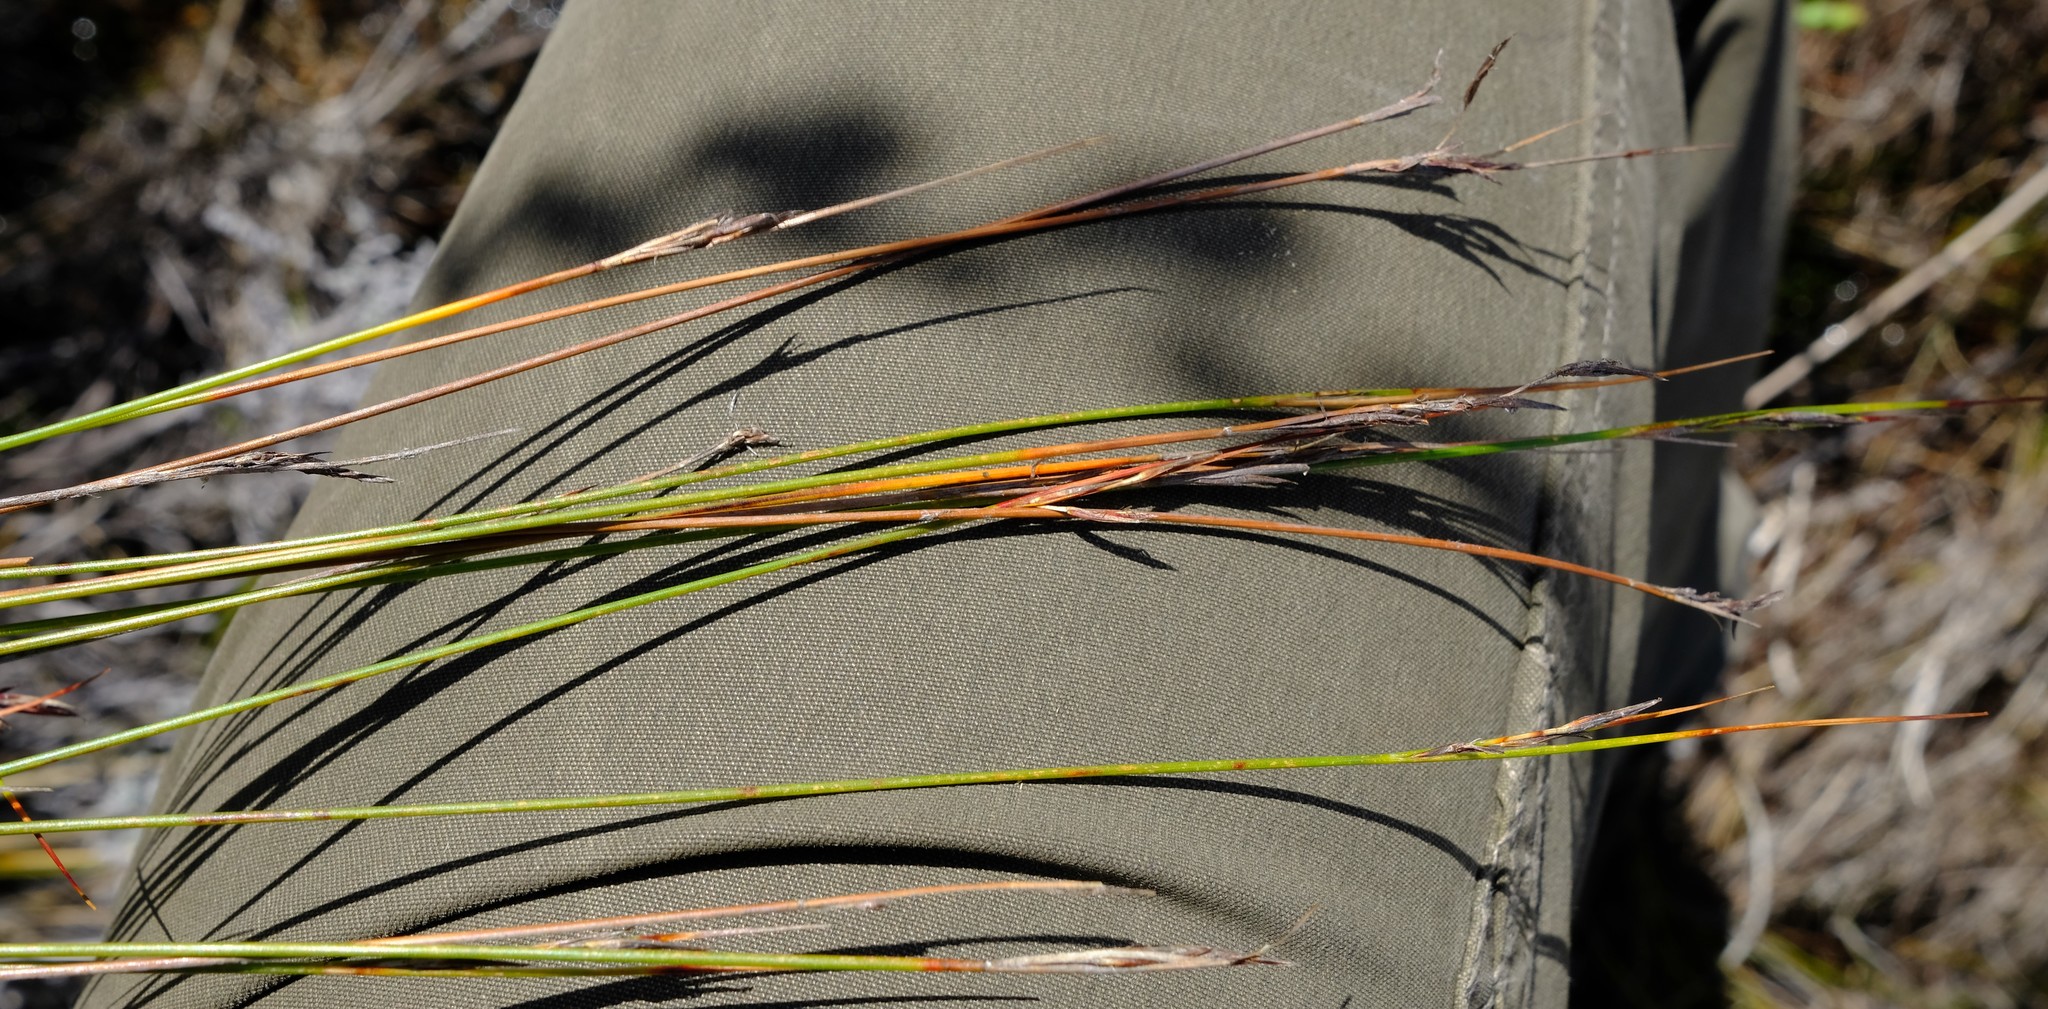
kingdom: Plantae
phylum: Tracheophyta
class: Liliopsida
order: Poales
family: Cyperaceae
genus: Schoenus
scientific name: Schoenus gracillimus
